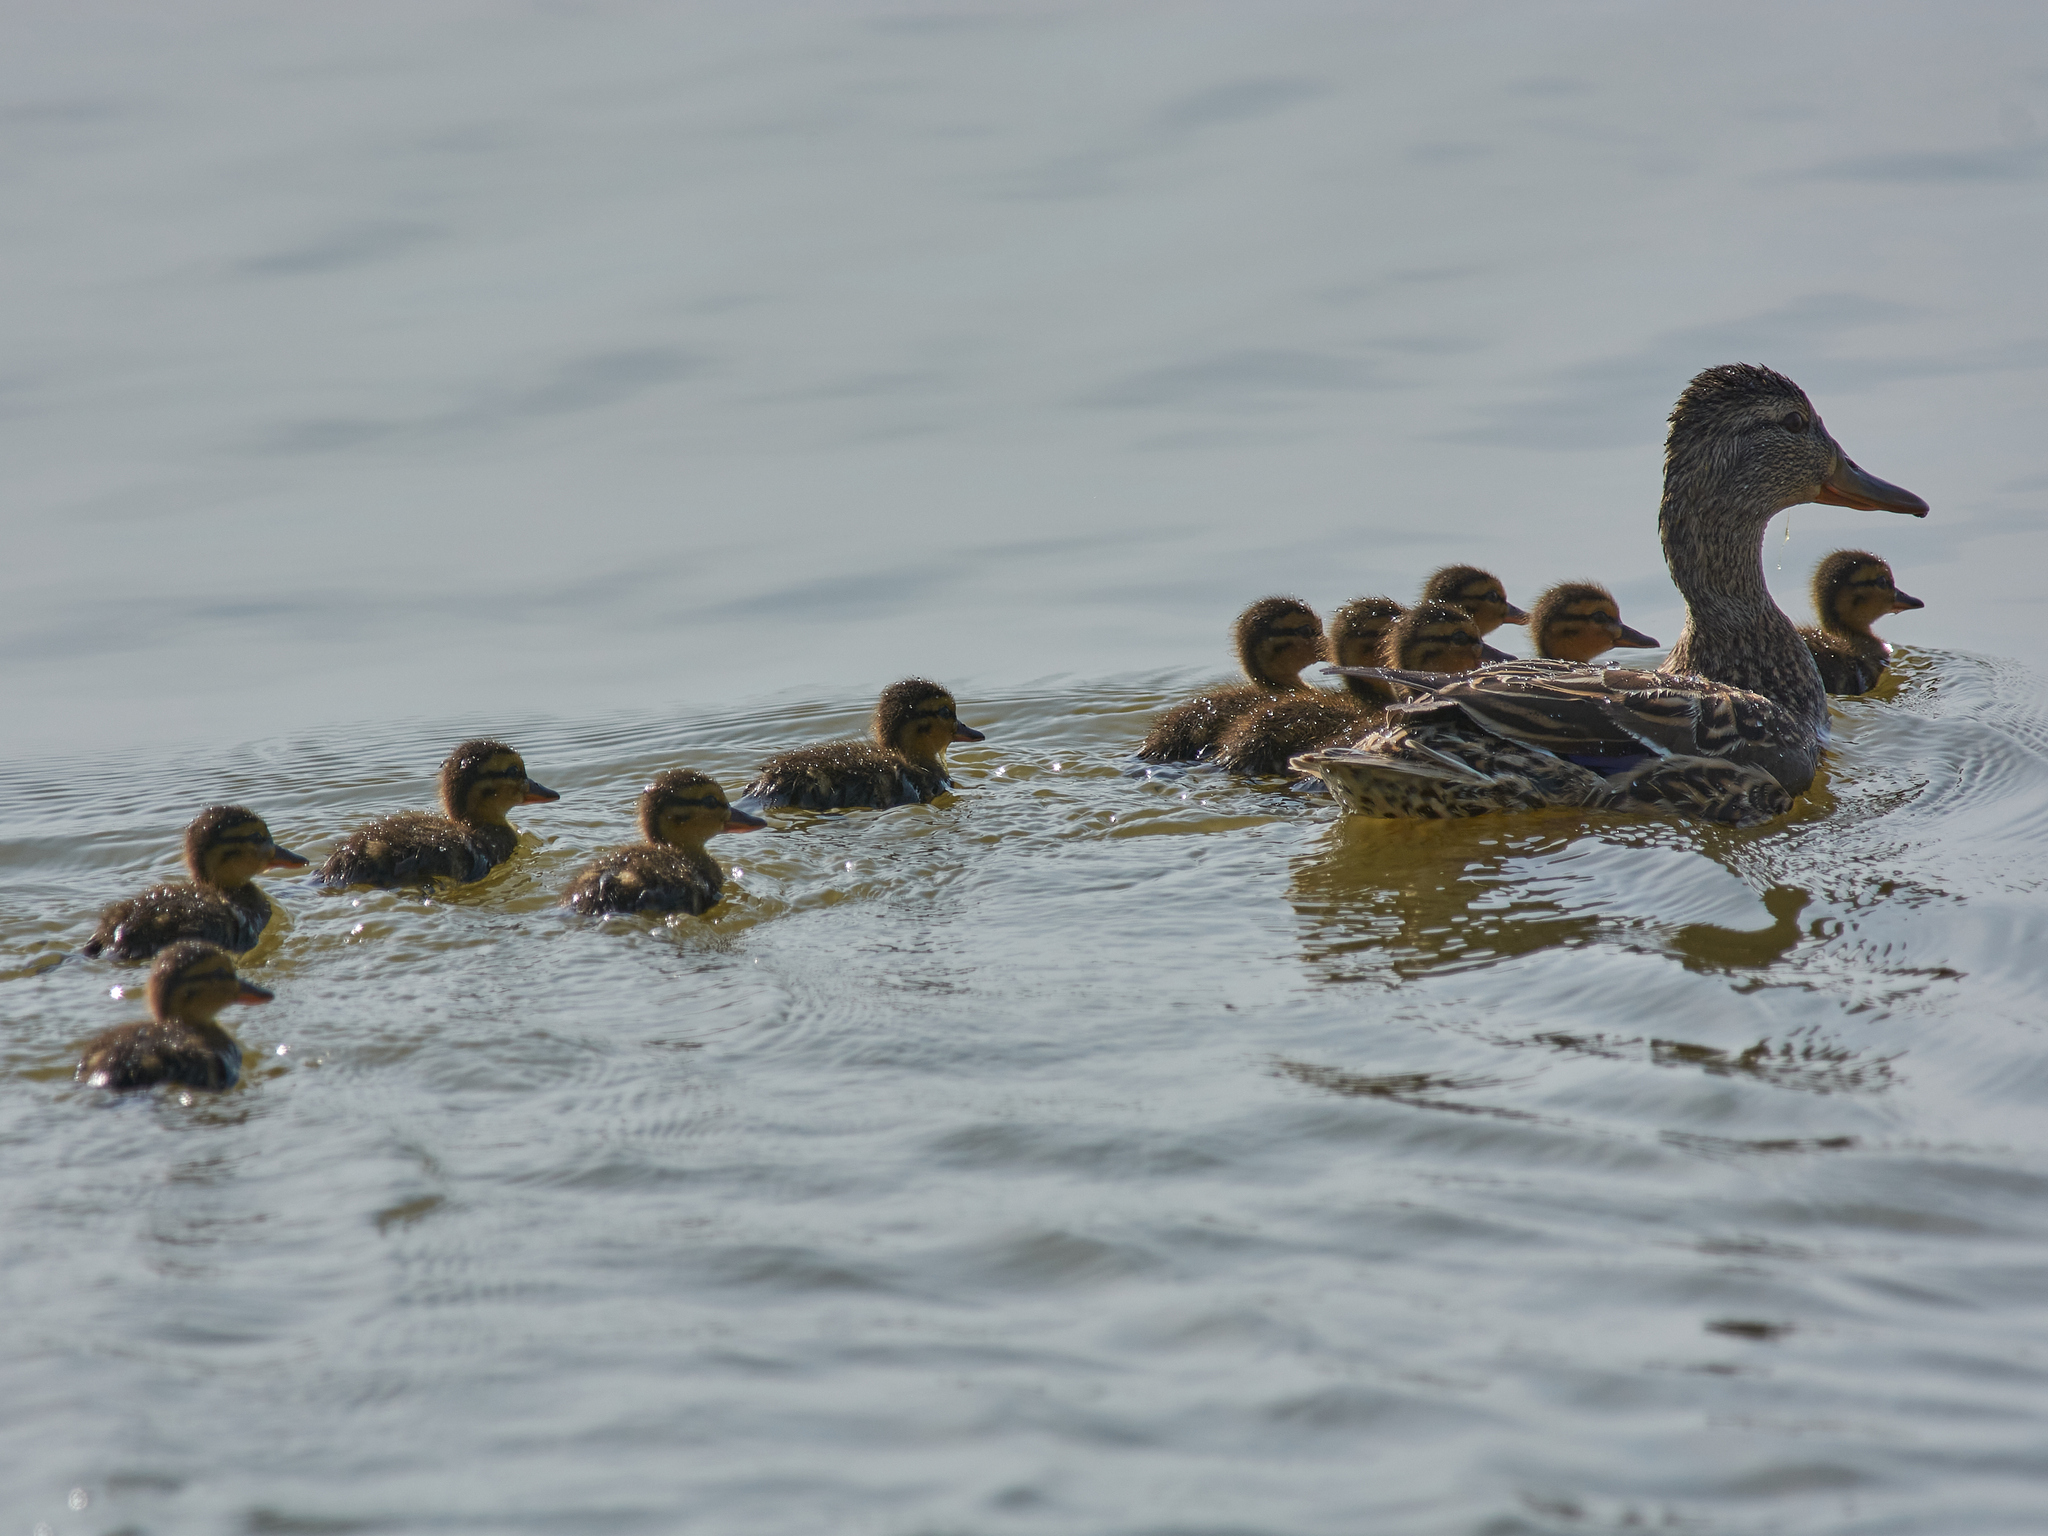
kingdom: Animalia
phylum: Chordata
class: Aves
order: Anseriformes
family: Anatidae
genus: Anas
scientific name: Anas platyrhynchos
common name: Mallard
